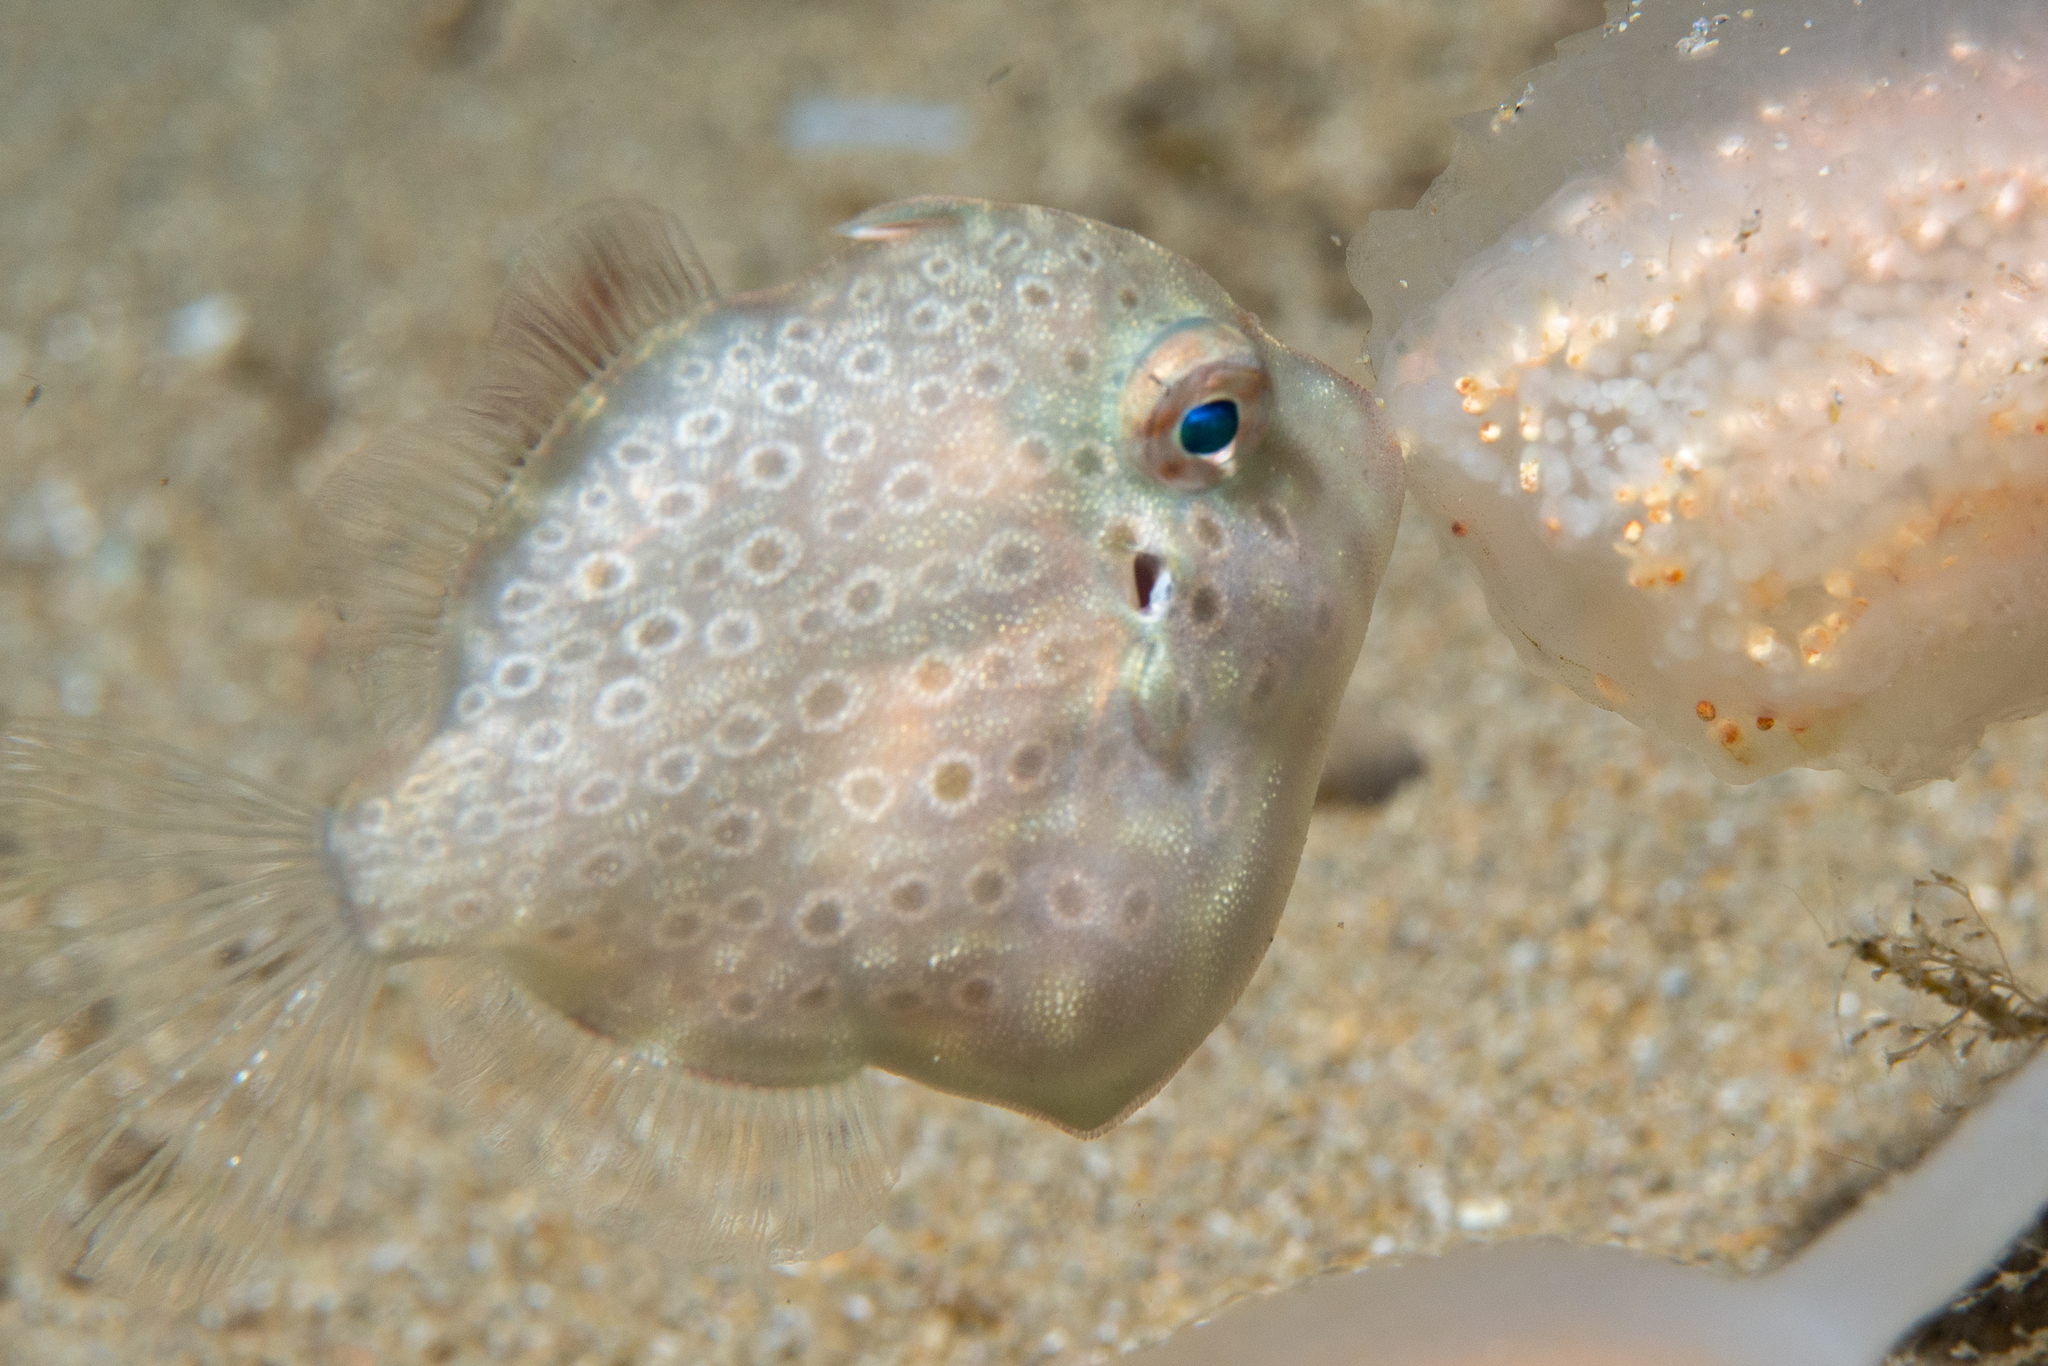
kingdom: Animalia
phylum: Chordata
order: Tetraodontiformes
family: Monacanthidae
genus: Brachaluteres
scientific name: Brachaluteres jacksonianus
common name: Pigmy leatherjacket
